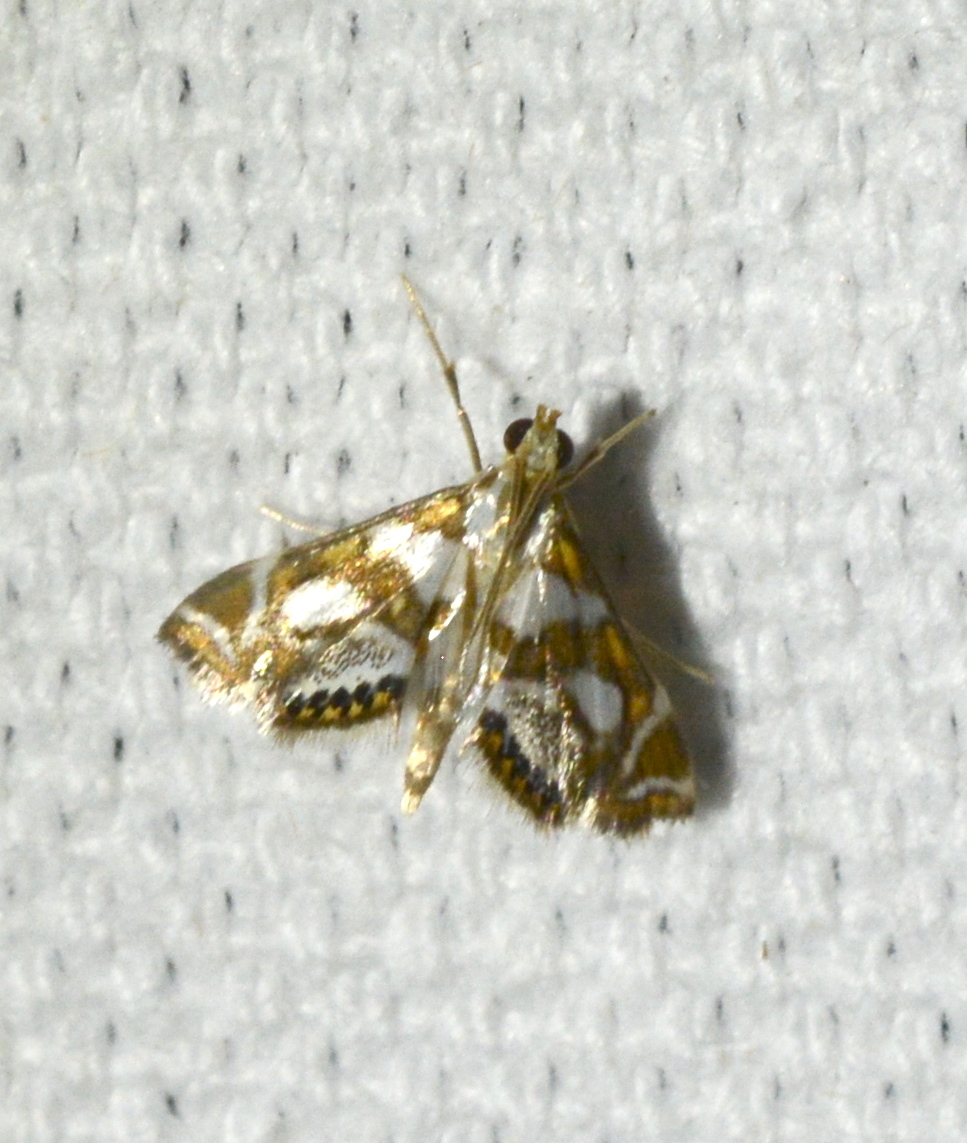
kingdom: Animalia
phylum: Arthropoda
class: Insecta
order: Lepidoptera
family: Crambidae
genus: Chrysendeton
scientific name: Chrysendeton medicinalis
